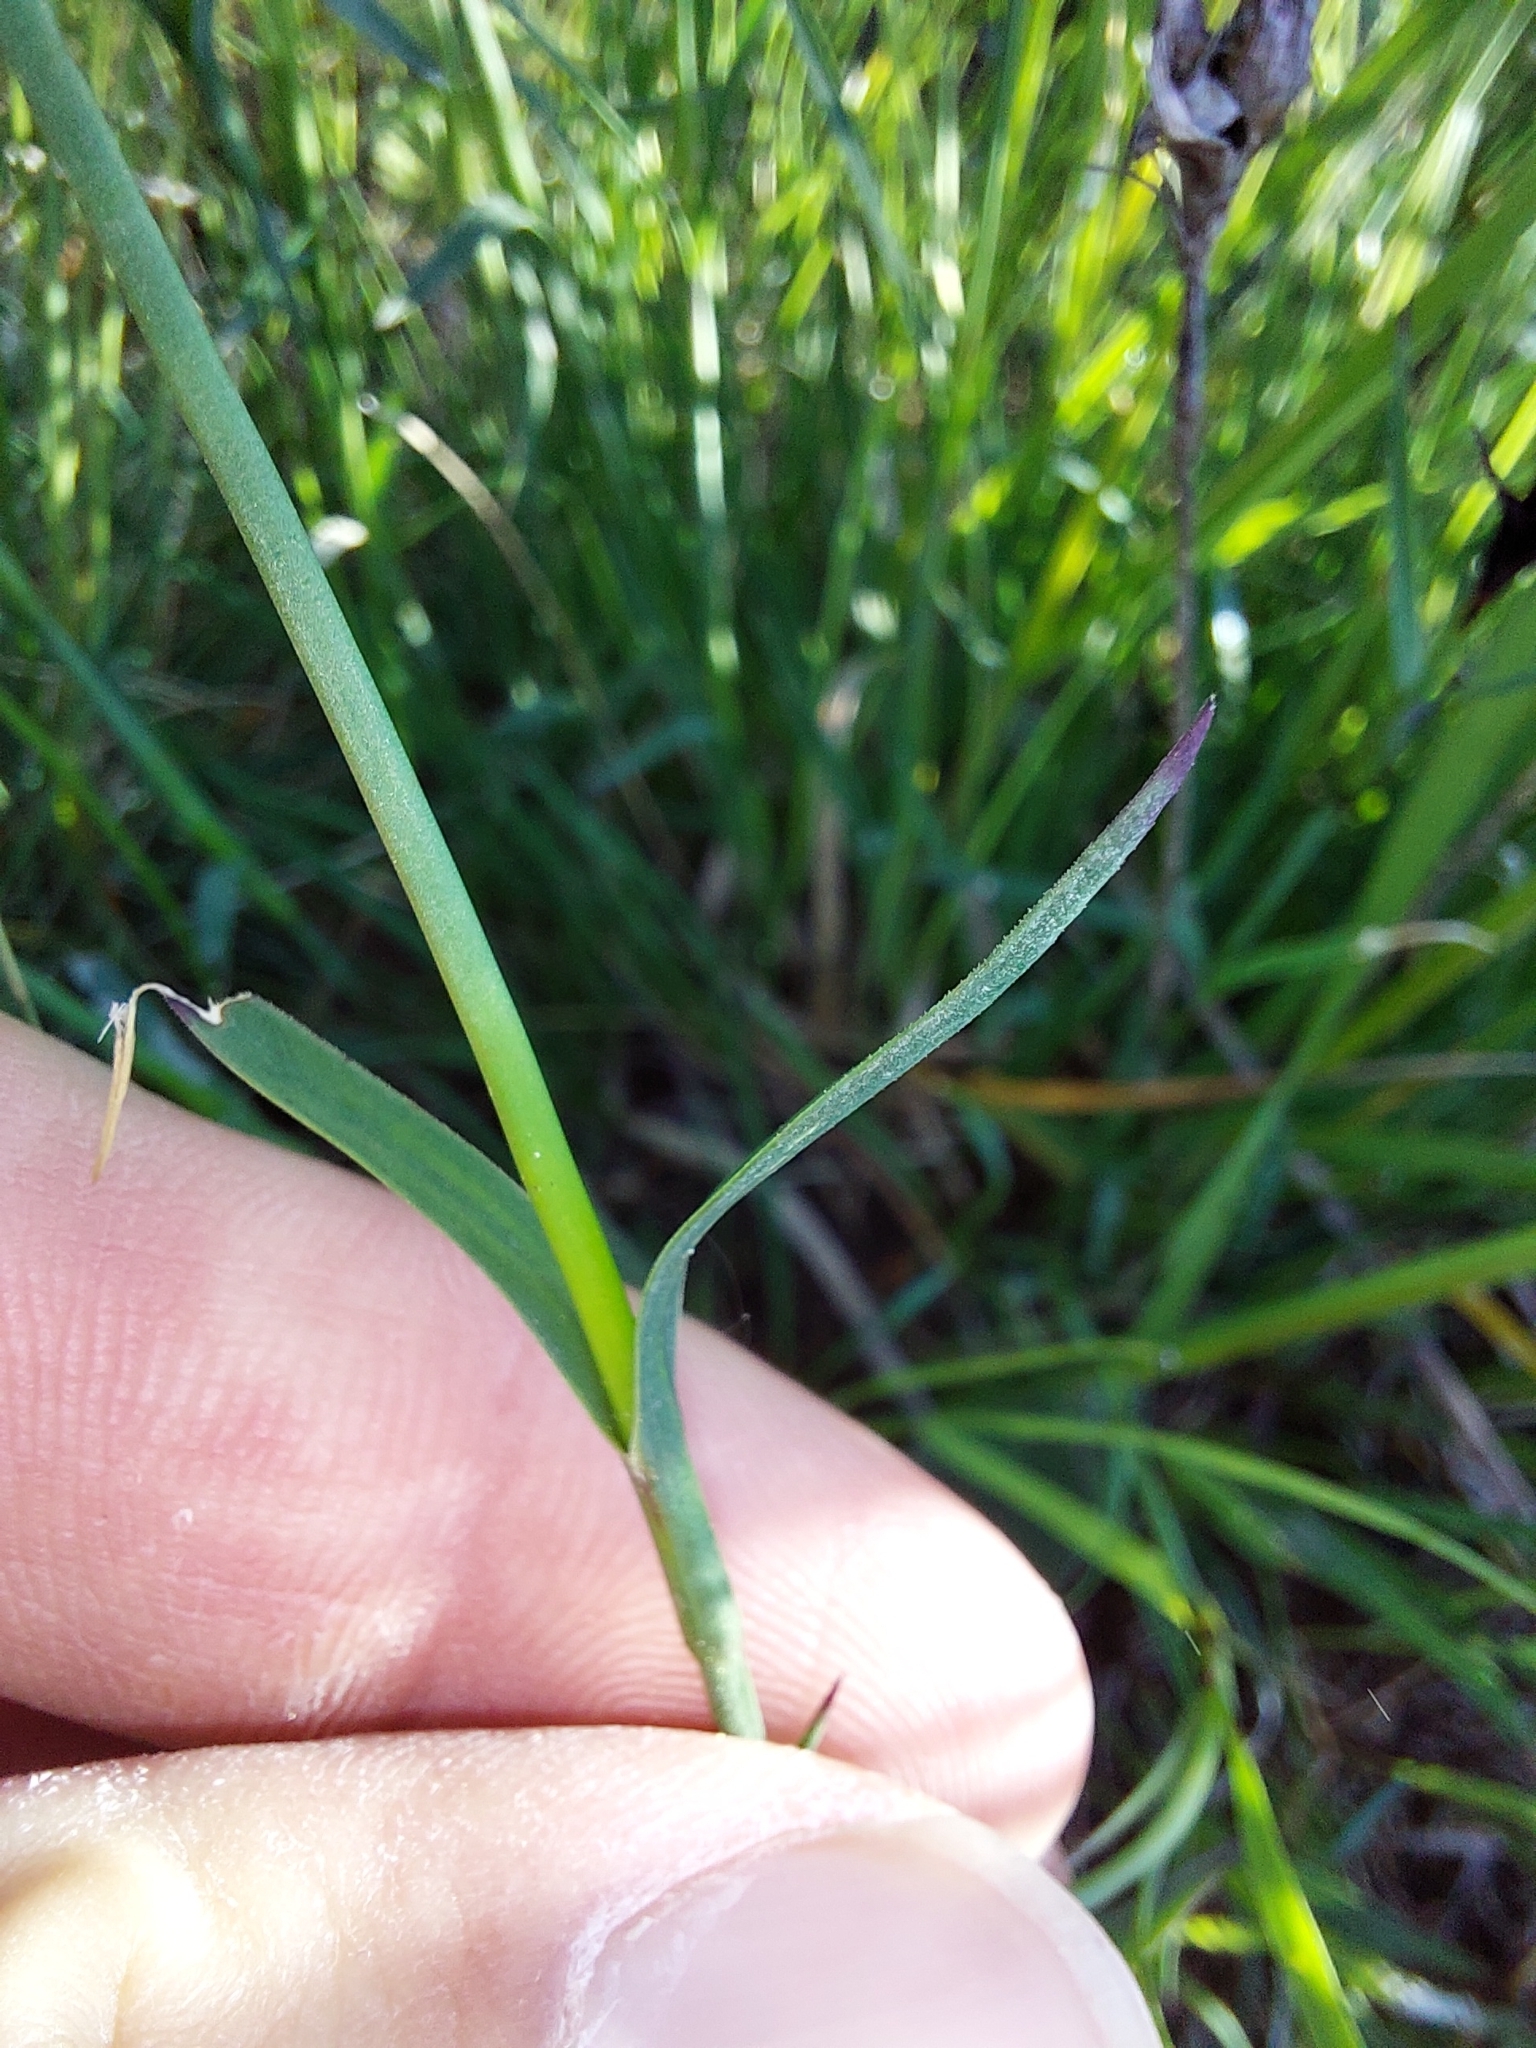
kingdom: Plantae
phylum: Tracheophyta
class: Magnoliopsida
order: Caryophyllales
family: Caryophyllaceae
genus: Dianthus
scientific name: Dianthus carthusianorum
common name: Carthusian pink
